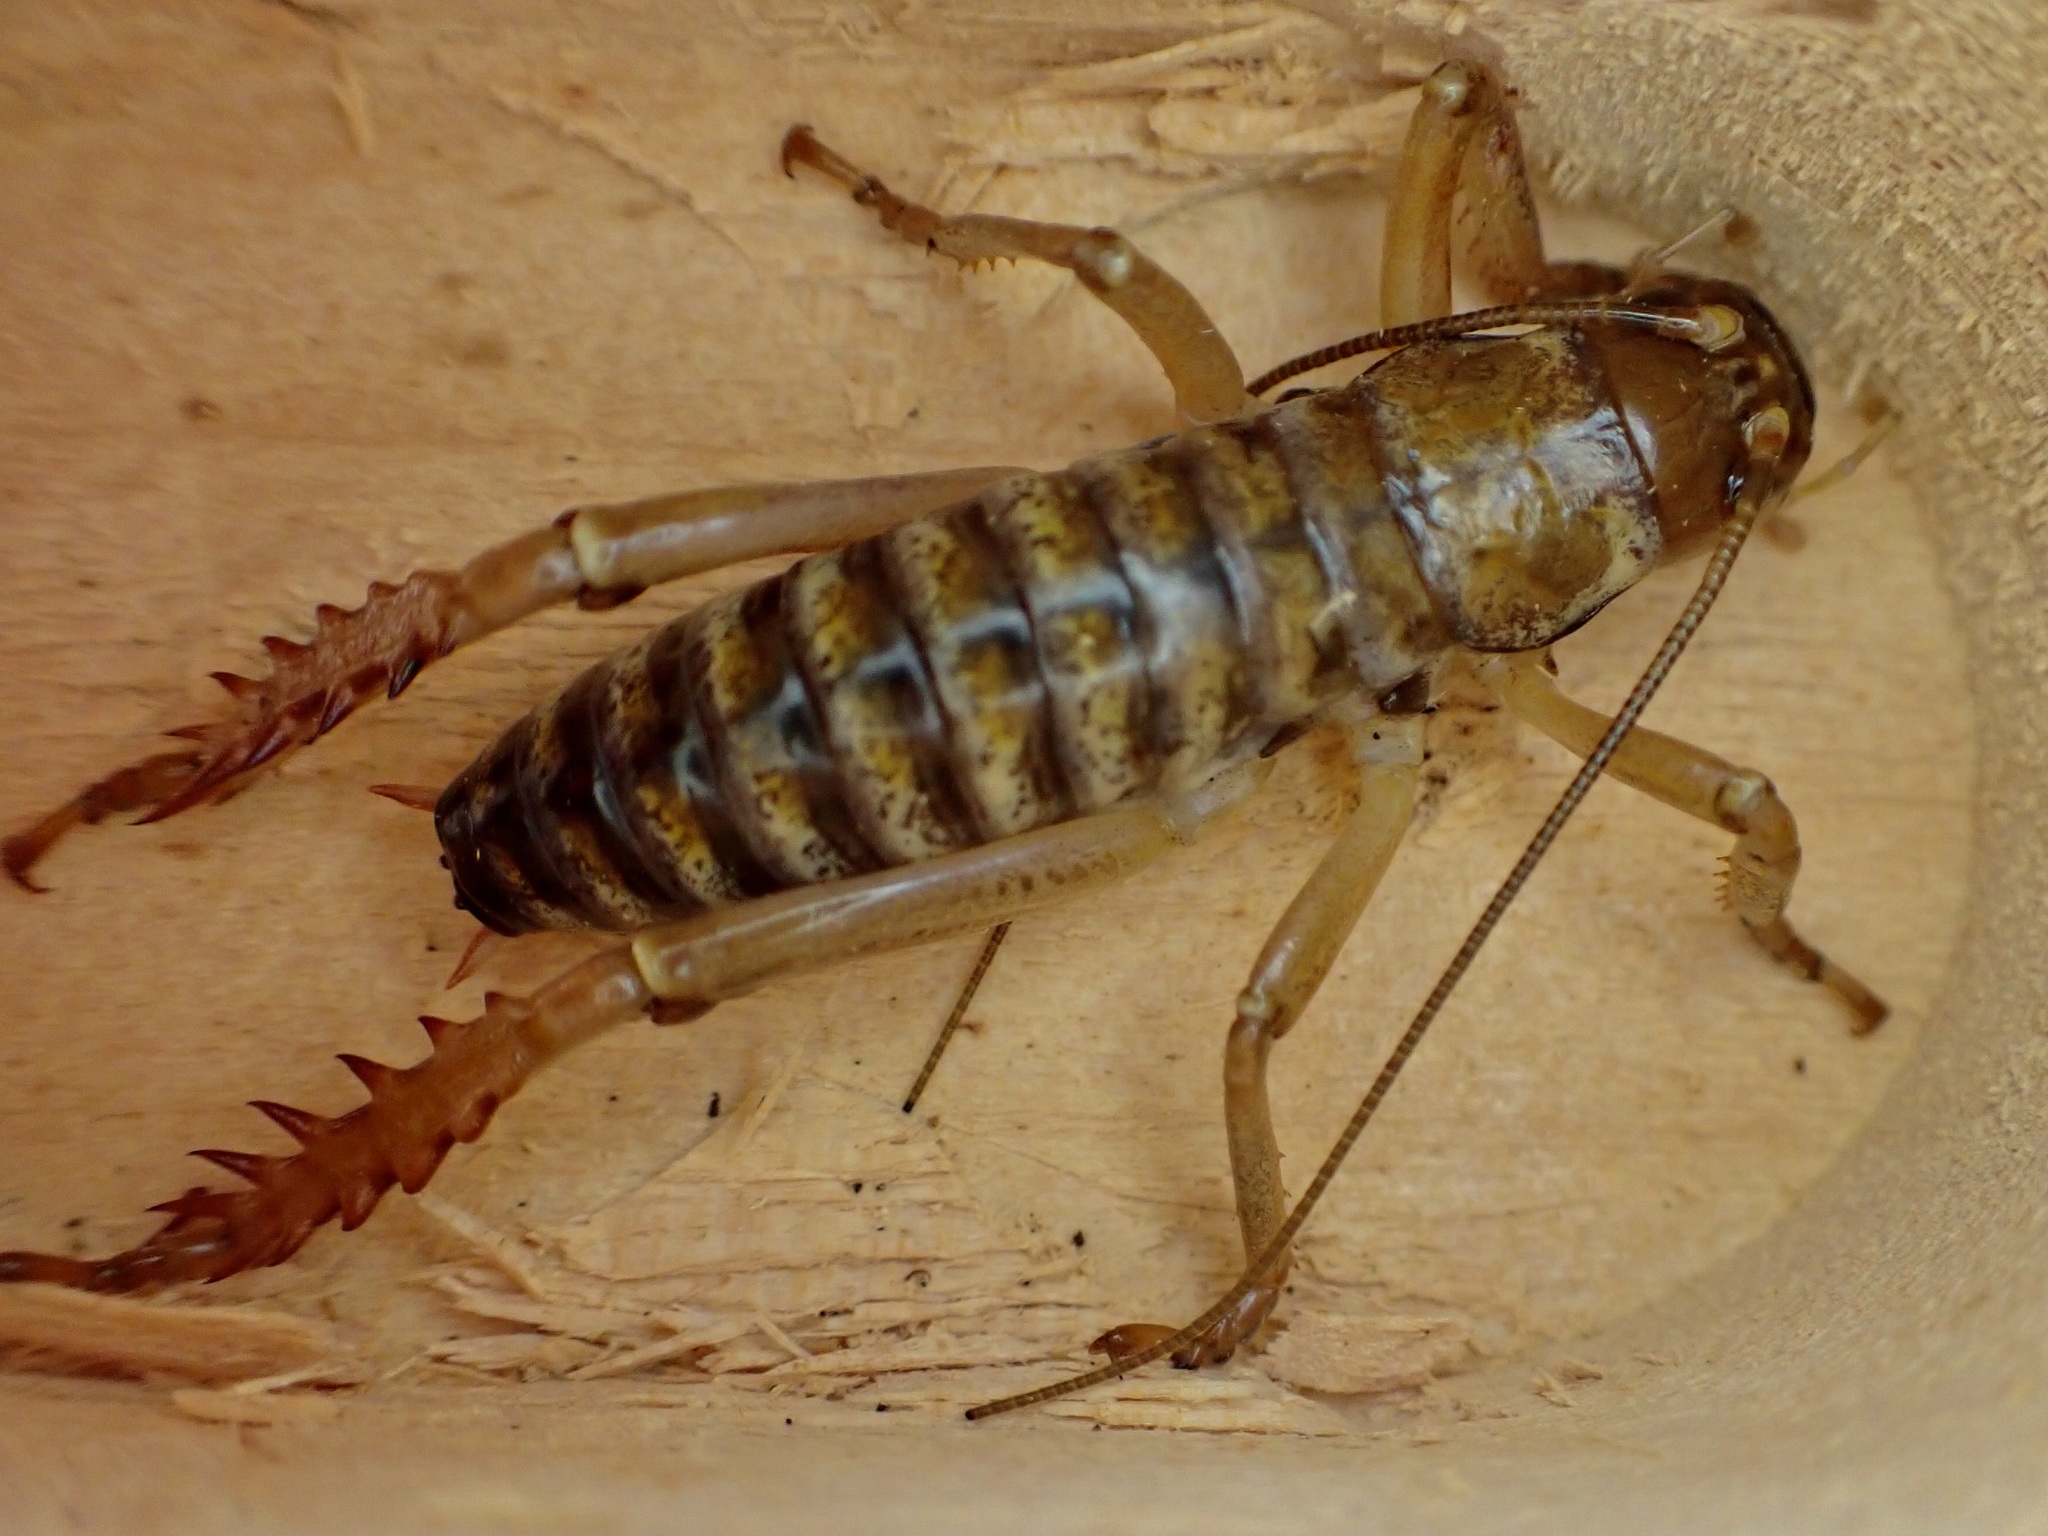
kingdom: Animalia
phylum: Arthropoda
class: Insecta
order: Orthoptera
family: Anostostomatidae
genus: Hemideina
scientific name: Hemideina ricta
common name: Banks peninsula tree weta
